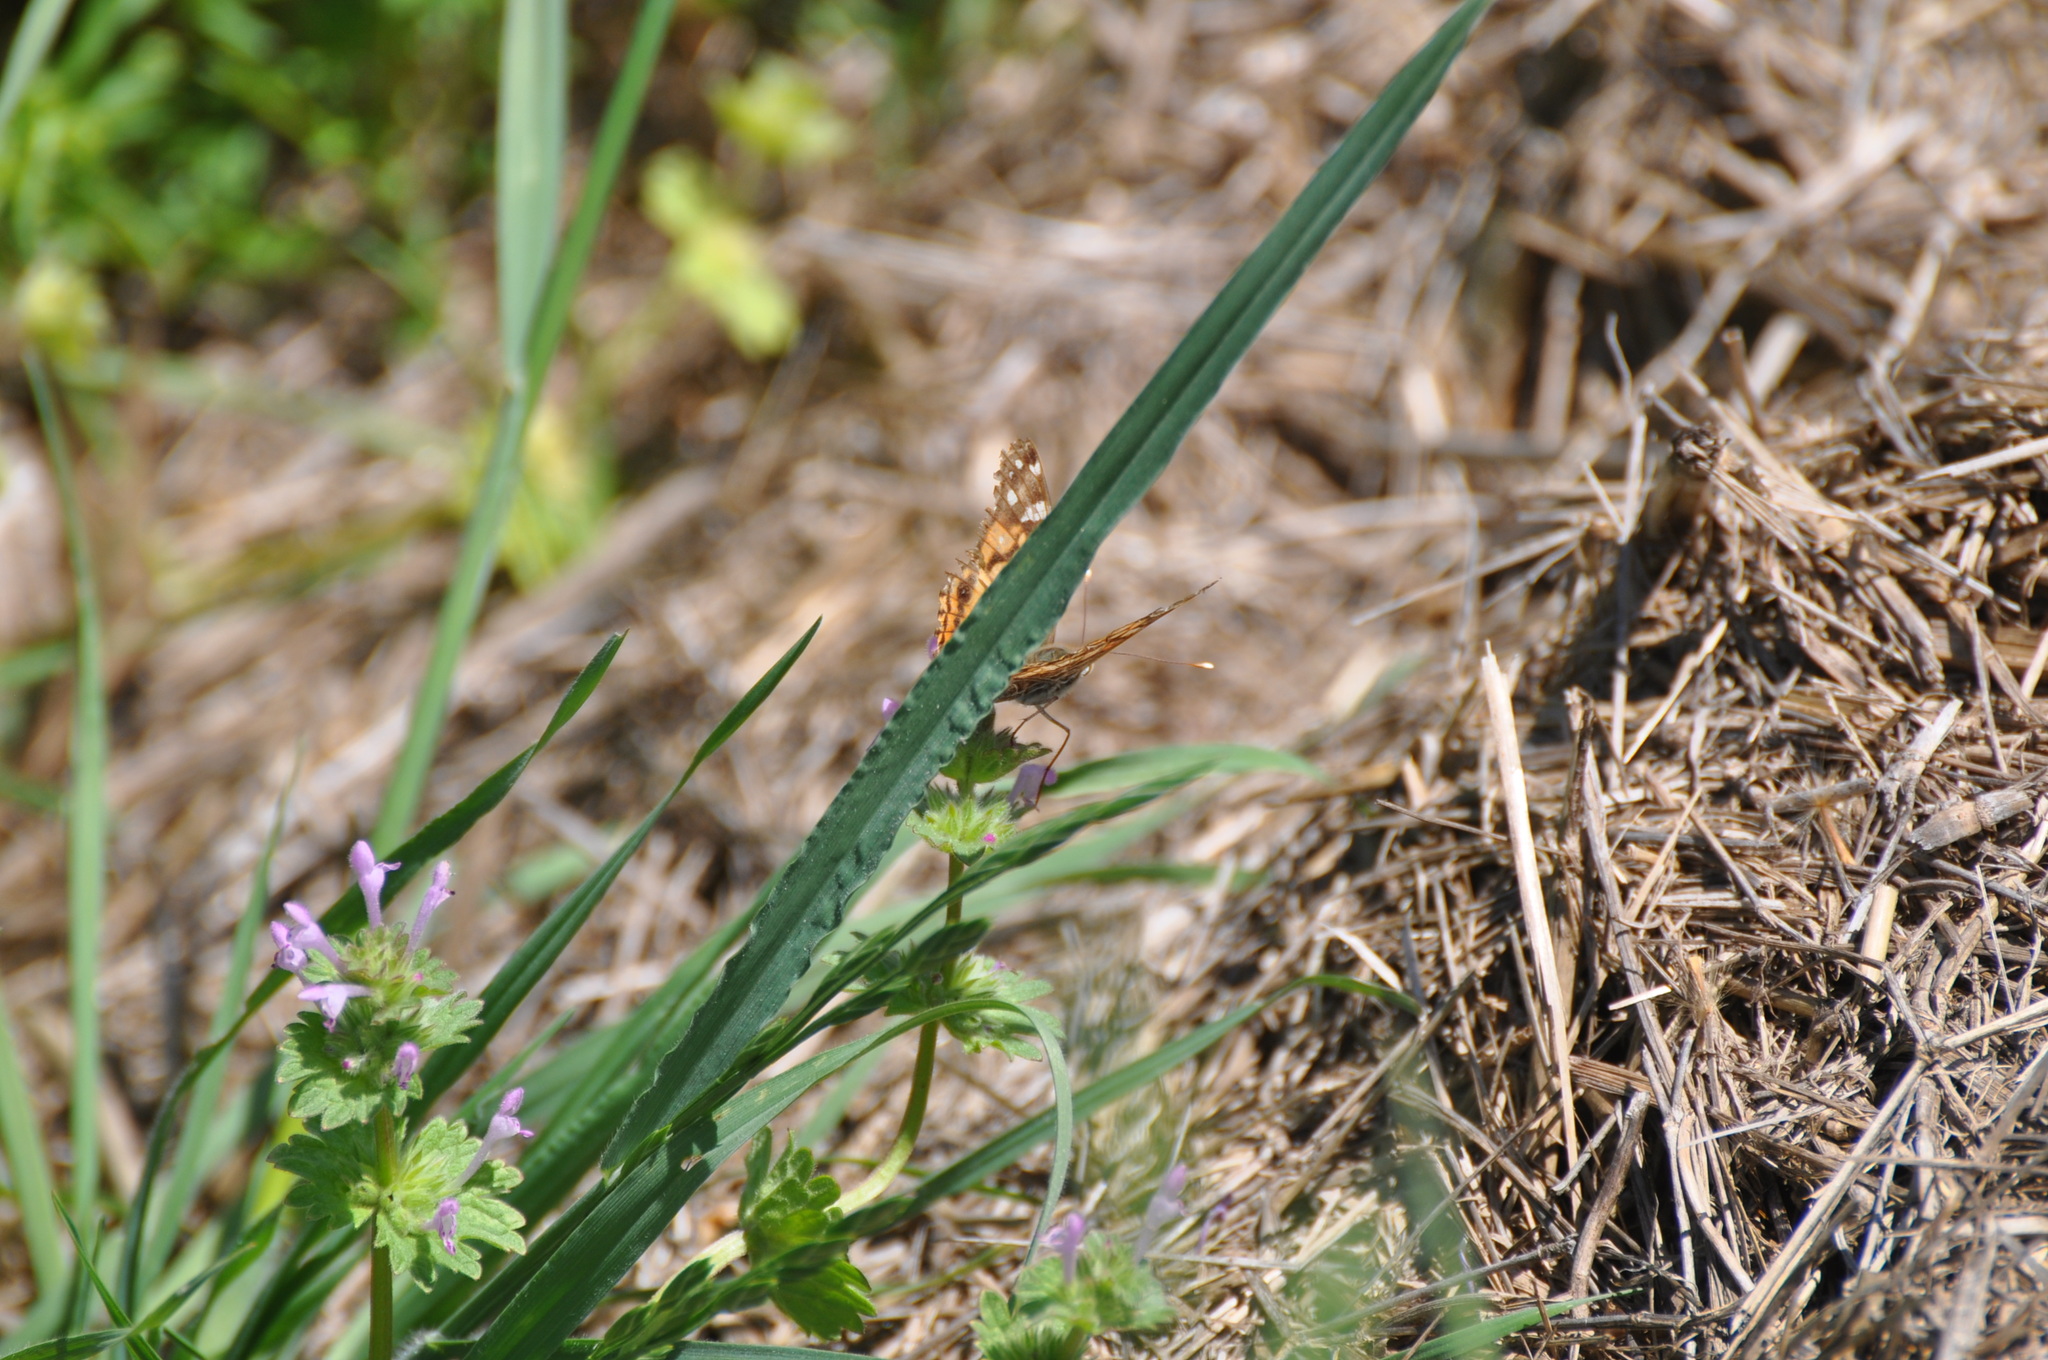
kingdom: Animalia
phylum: Arthropoda
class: Insecta
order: Lepidoptera
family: Nymphalidae
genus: Vanessa
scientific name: Vanessa virginiensis
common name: American lady
